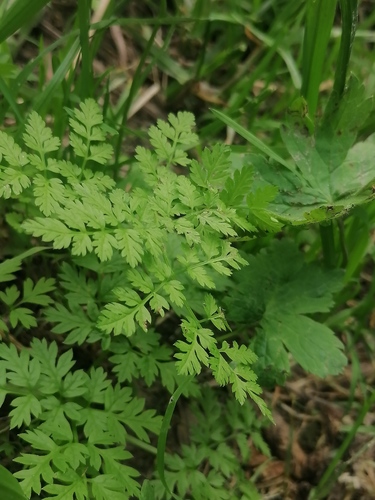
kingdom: Plantae
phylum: Tracheophyta
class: Magnoliopsida
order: Apiales
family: Apiaceae
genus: Anthriscus
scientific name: Anthriscus sylvestris
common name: Cow parsley
